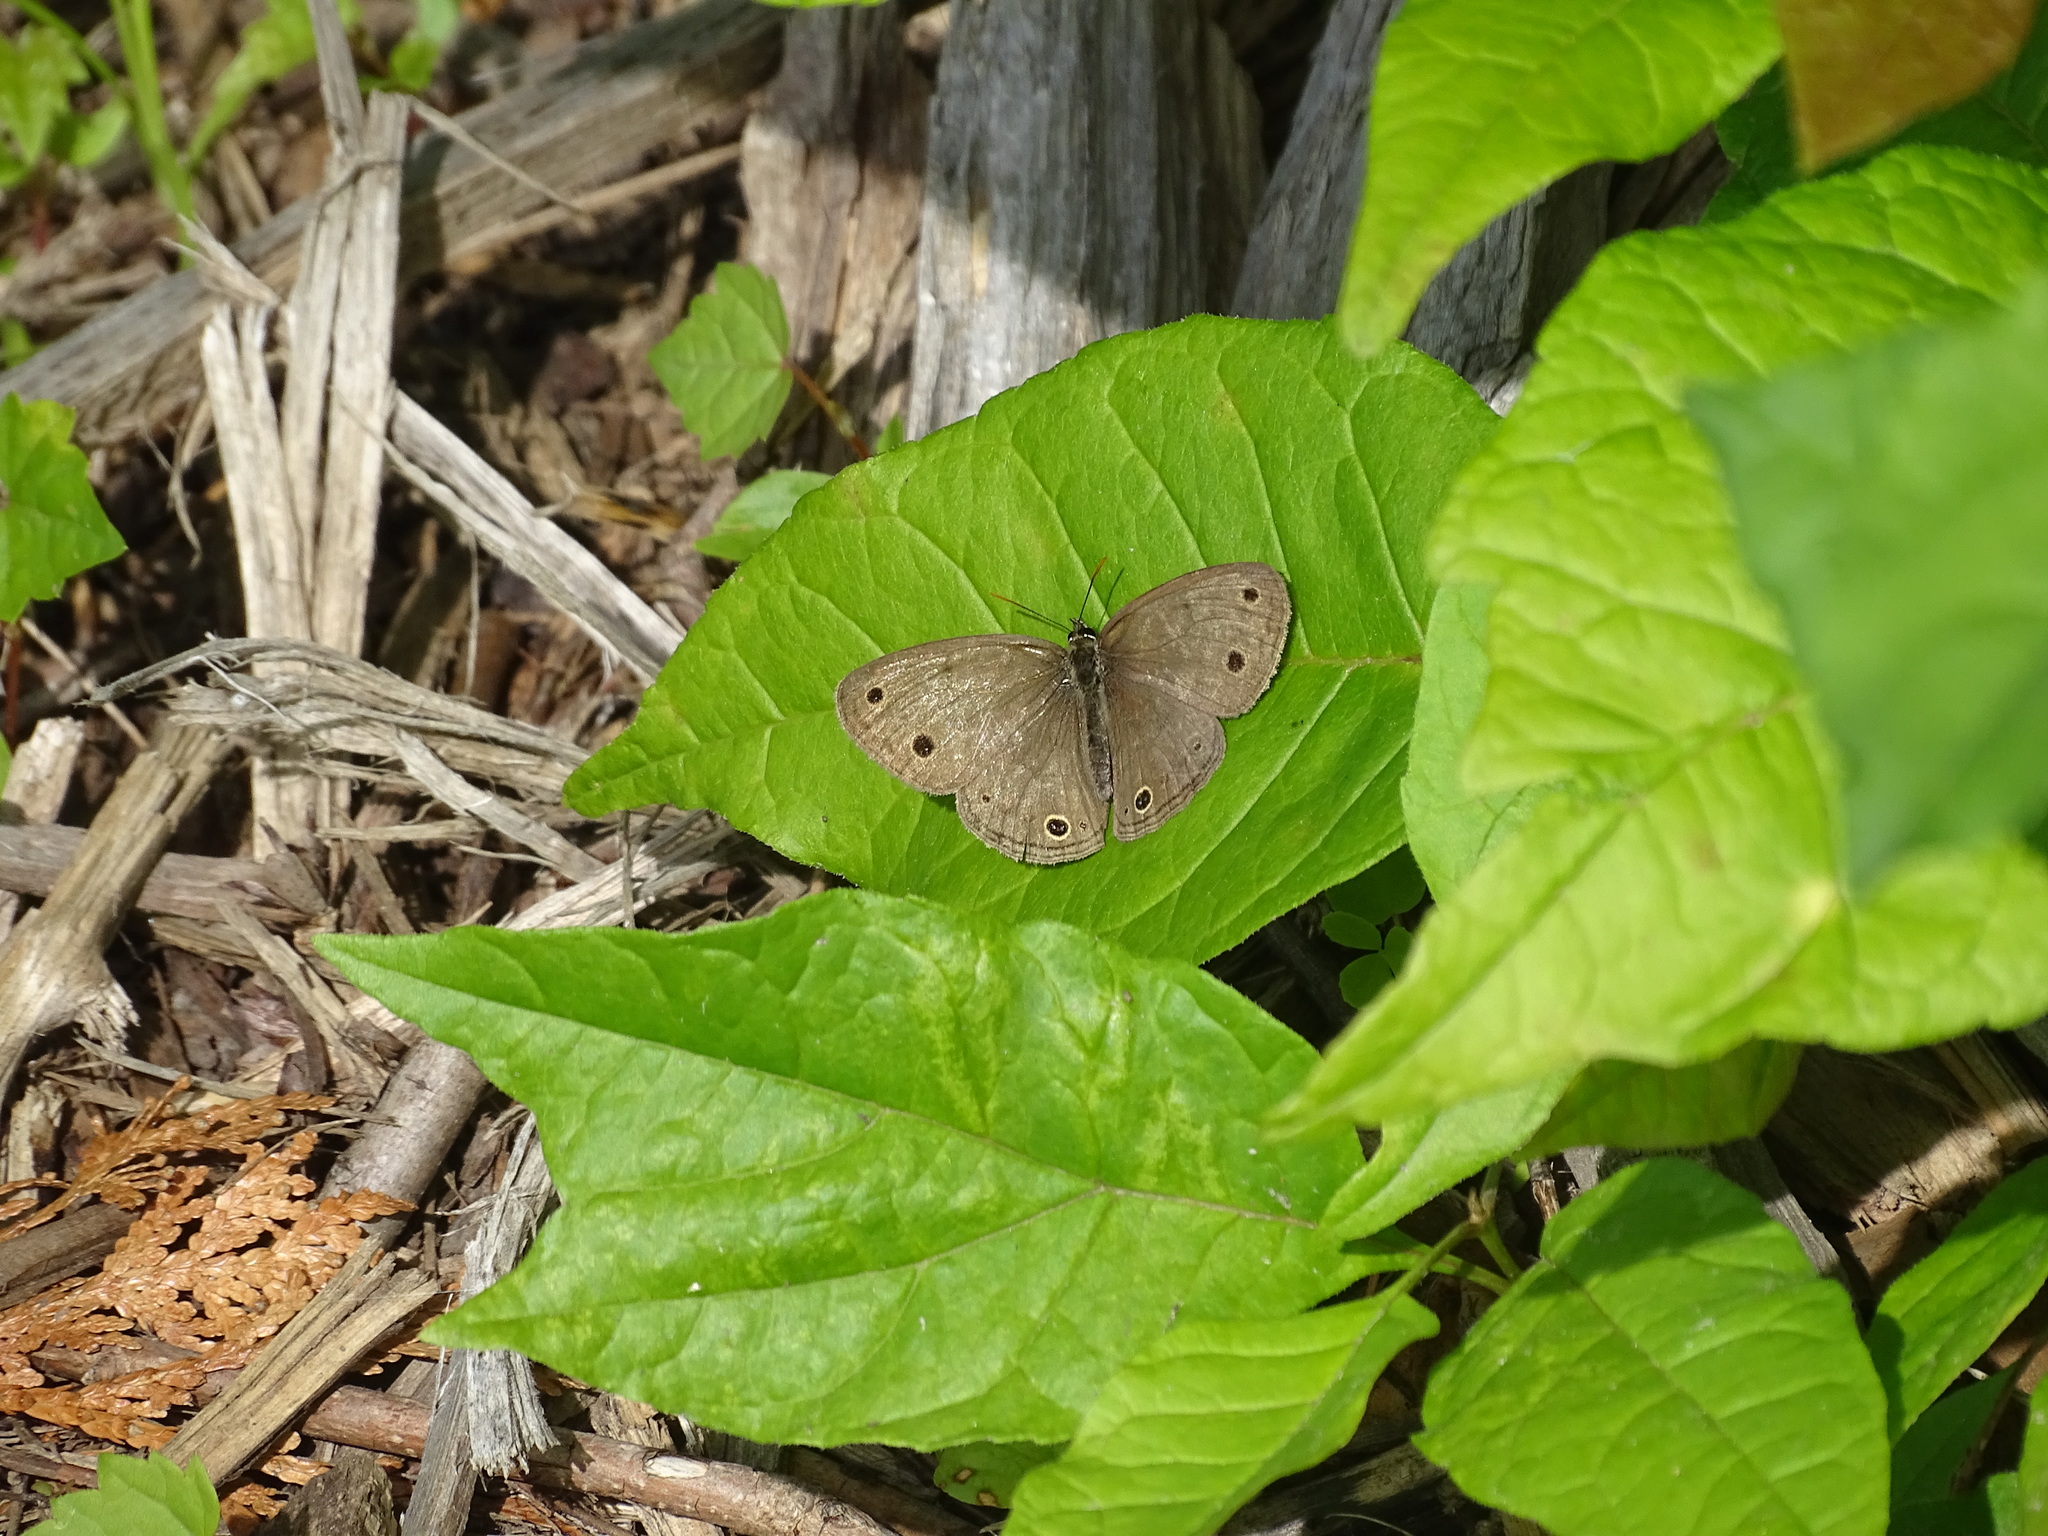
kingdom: Animalia
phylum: Arthropoda
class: Insecta
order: Lepidoptera
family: Nymphalidae
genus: Euptychia
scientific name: Euptychia cymela
